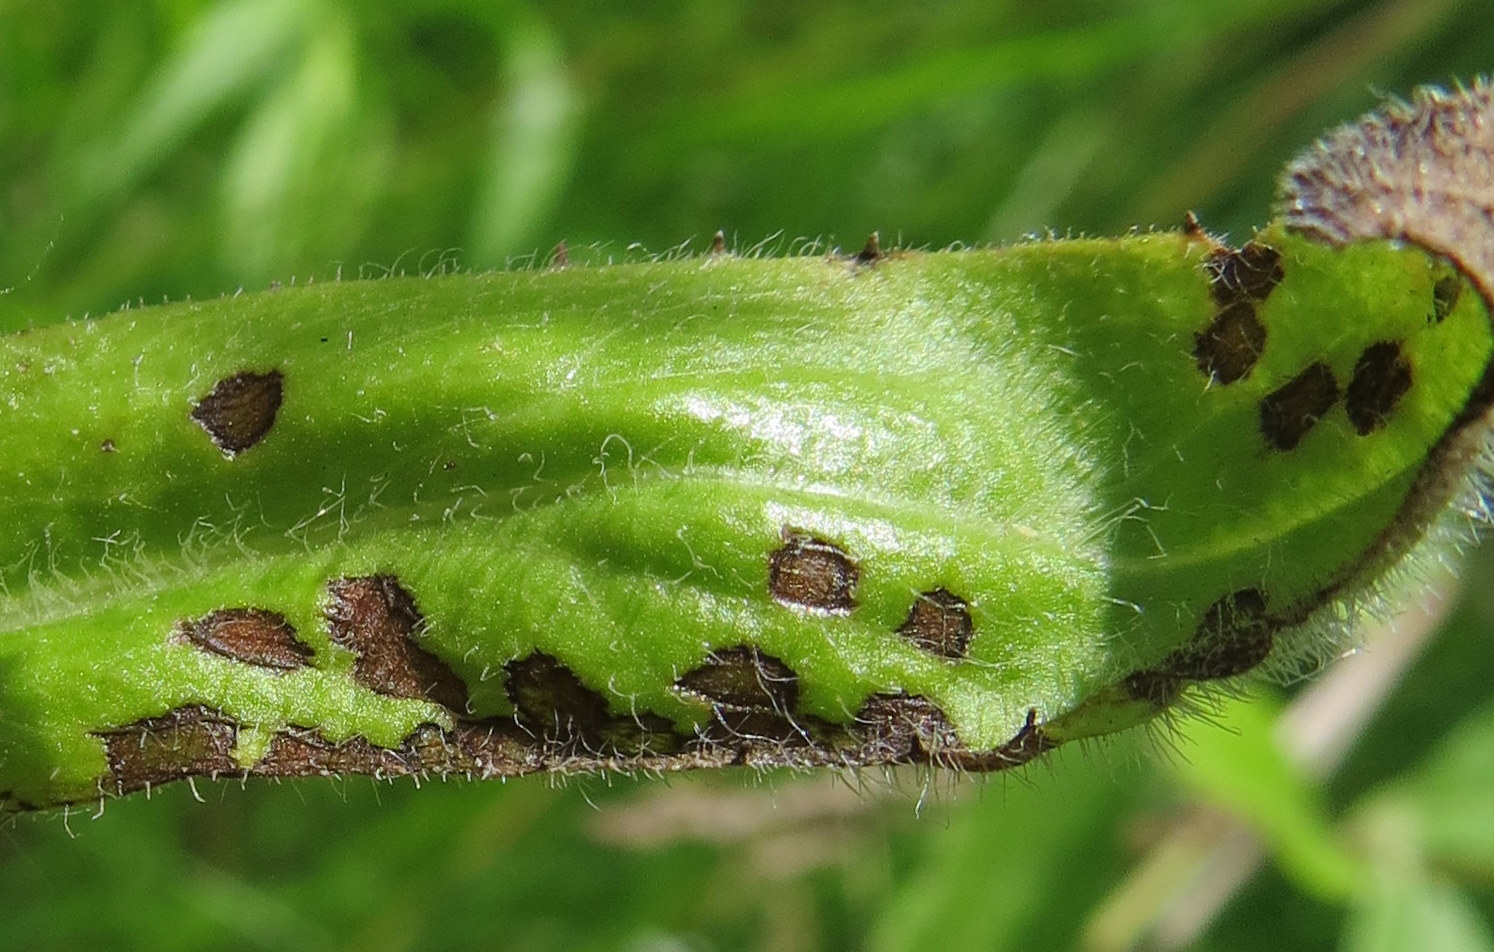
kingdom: Animalia
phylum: Arthropoda
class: Insecta
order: Hemiptera
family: Miridae
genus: Poecilocapsus
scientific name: Poecilocapsus lineatus
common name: Four-lined plant bug
